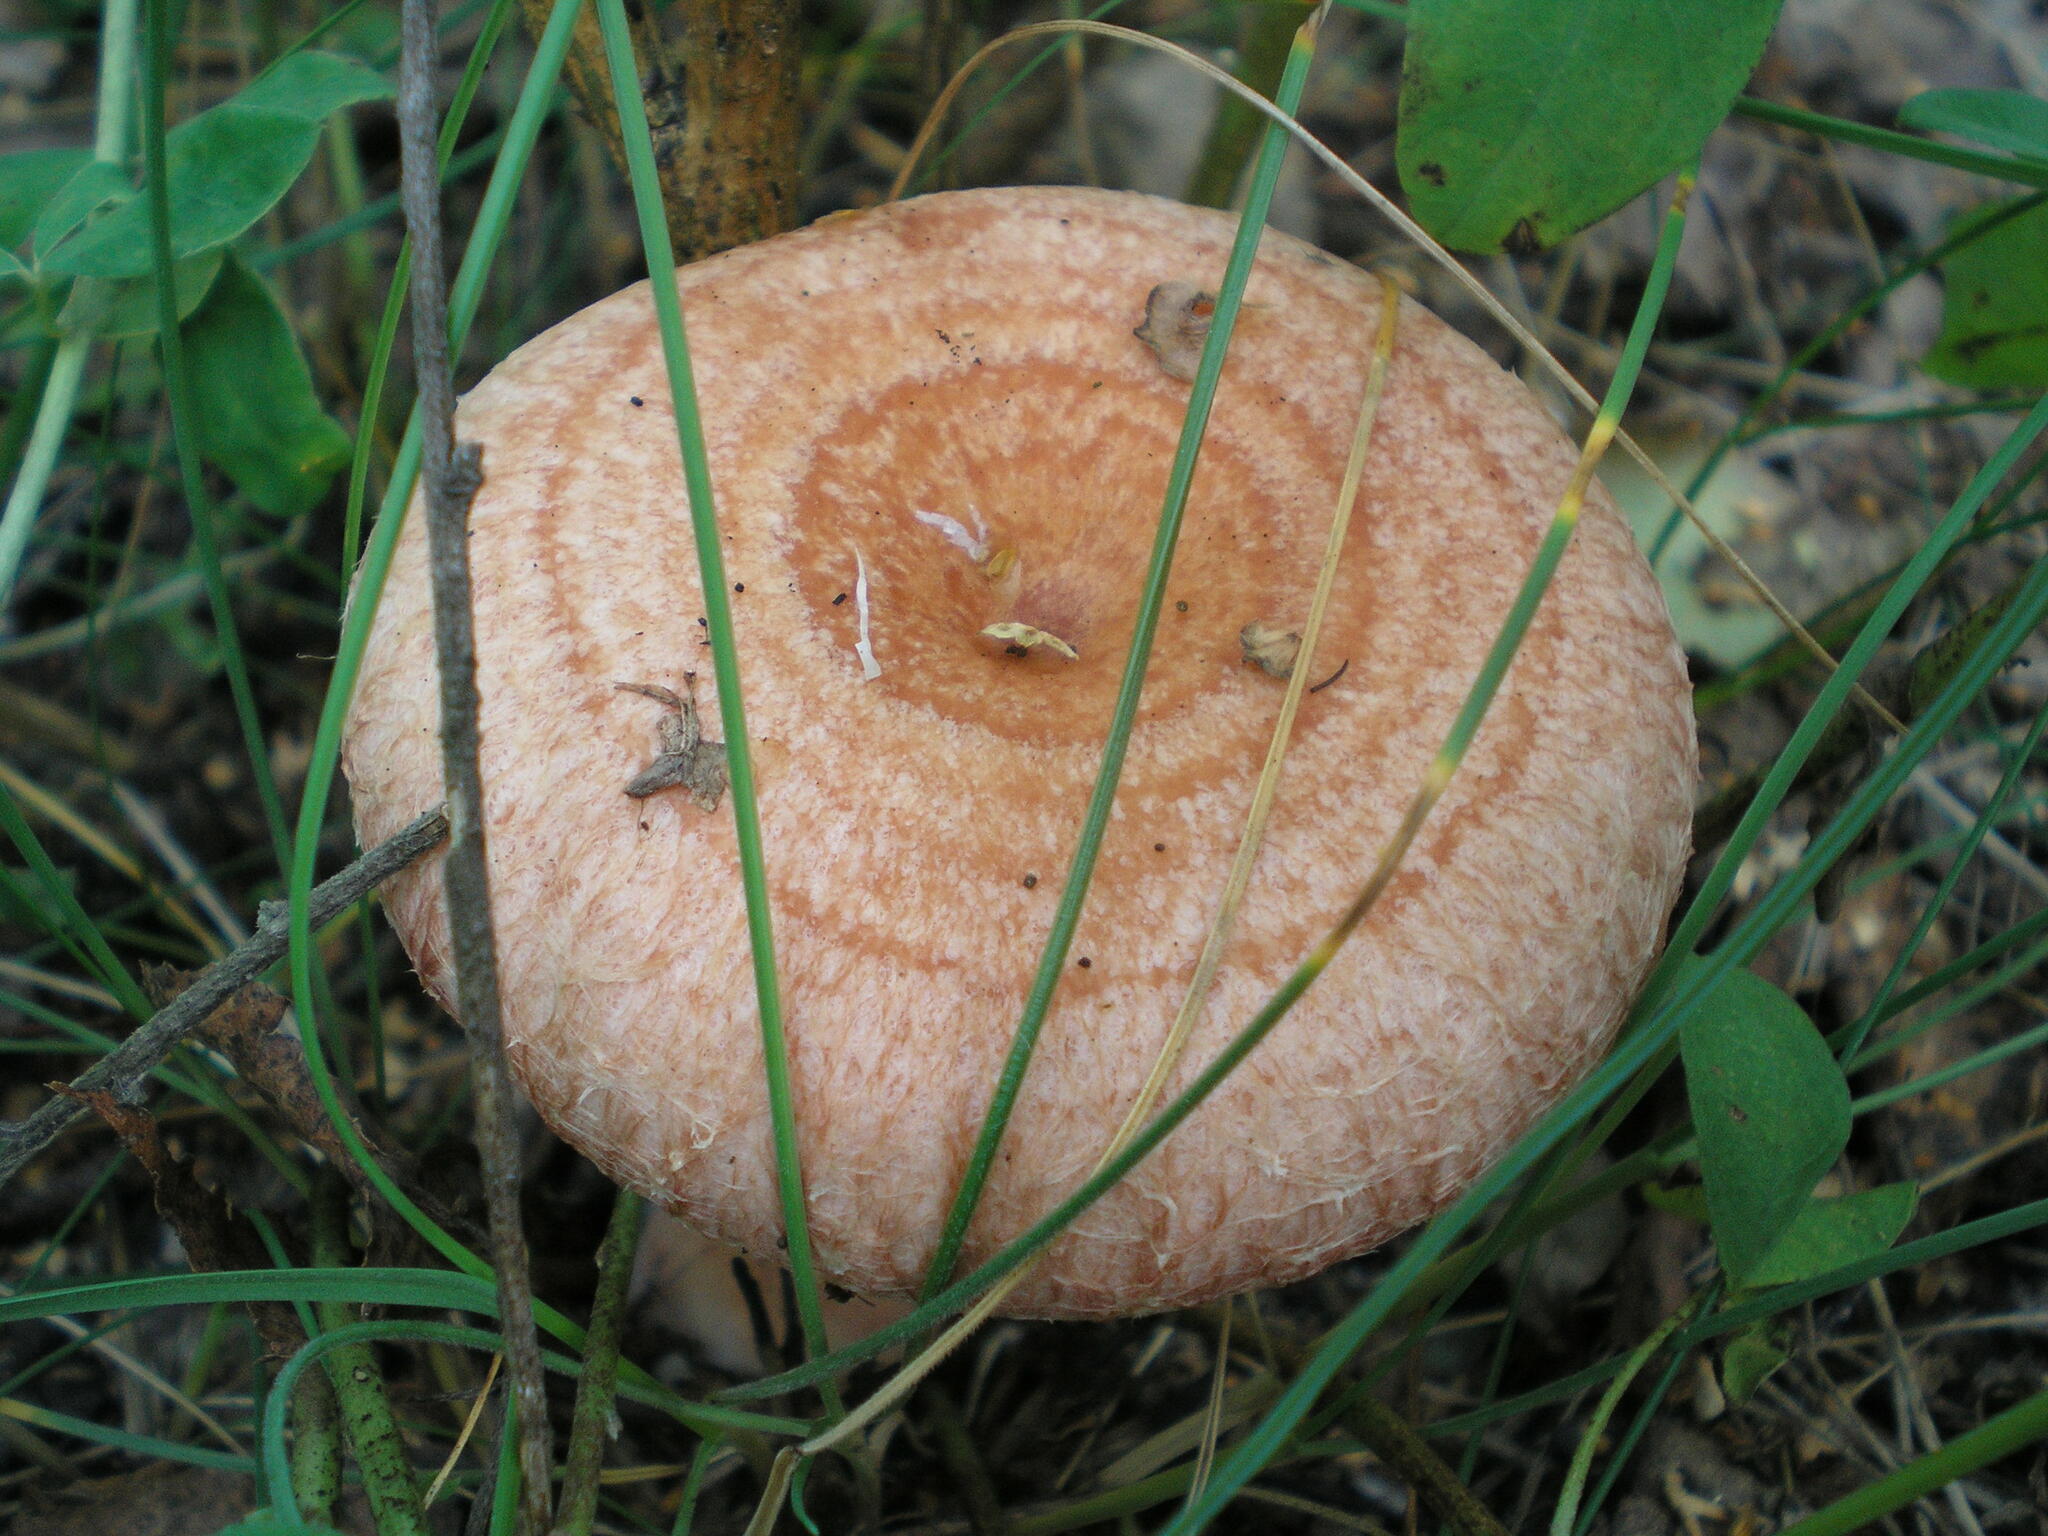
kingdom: Fungi
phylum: Basidiomycota
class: Agaricomycetes
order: Russulales
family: Russulaceae
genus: Lactarius
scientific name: Lactarius torminosus
